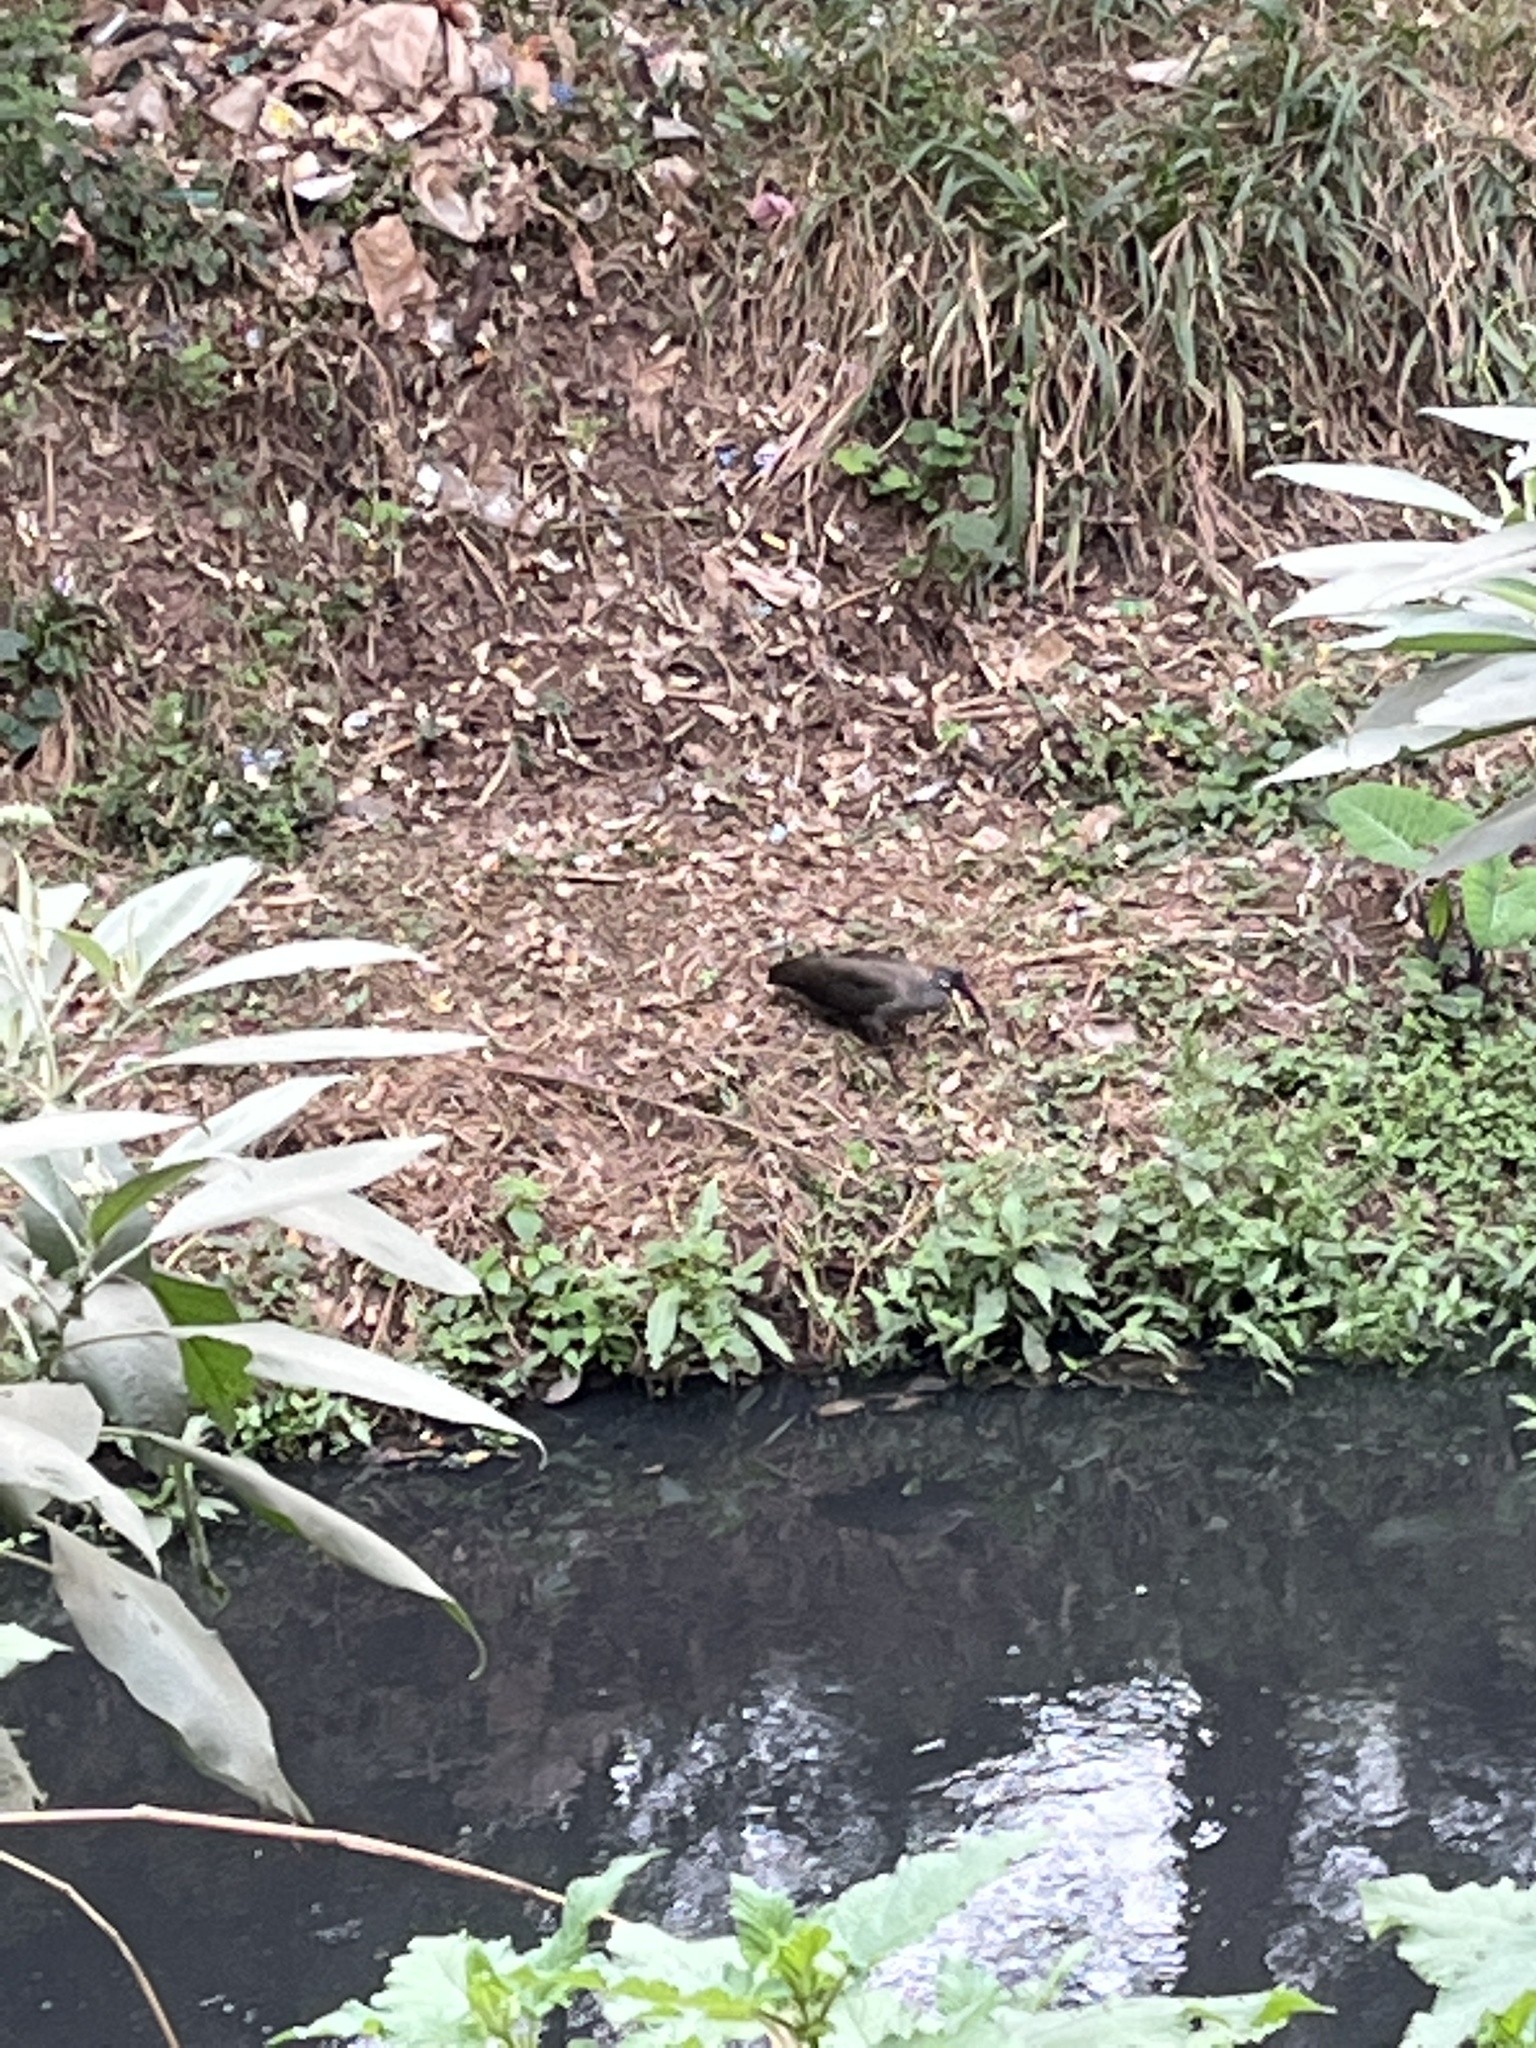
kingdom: Animalia
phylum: Chordata
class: Aves
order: Pelecaniformes
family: Threskiornithidae
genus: Bostrychia
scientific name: Bostrychia hagedash
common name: Hadada ibis
